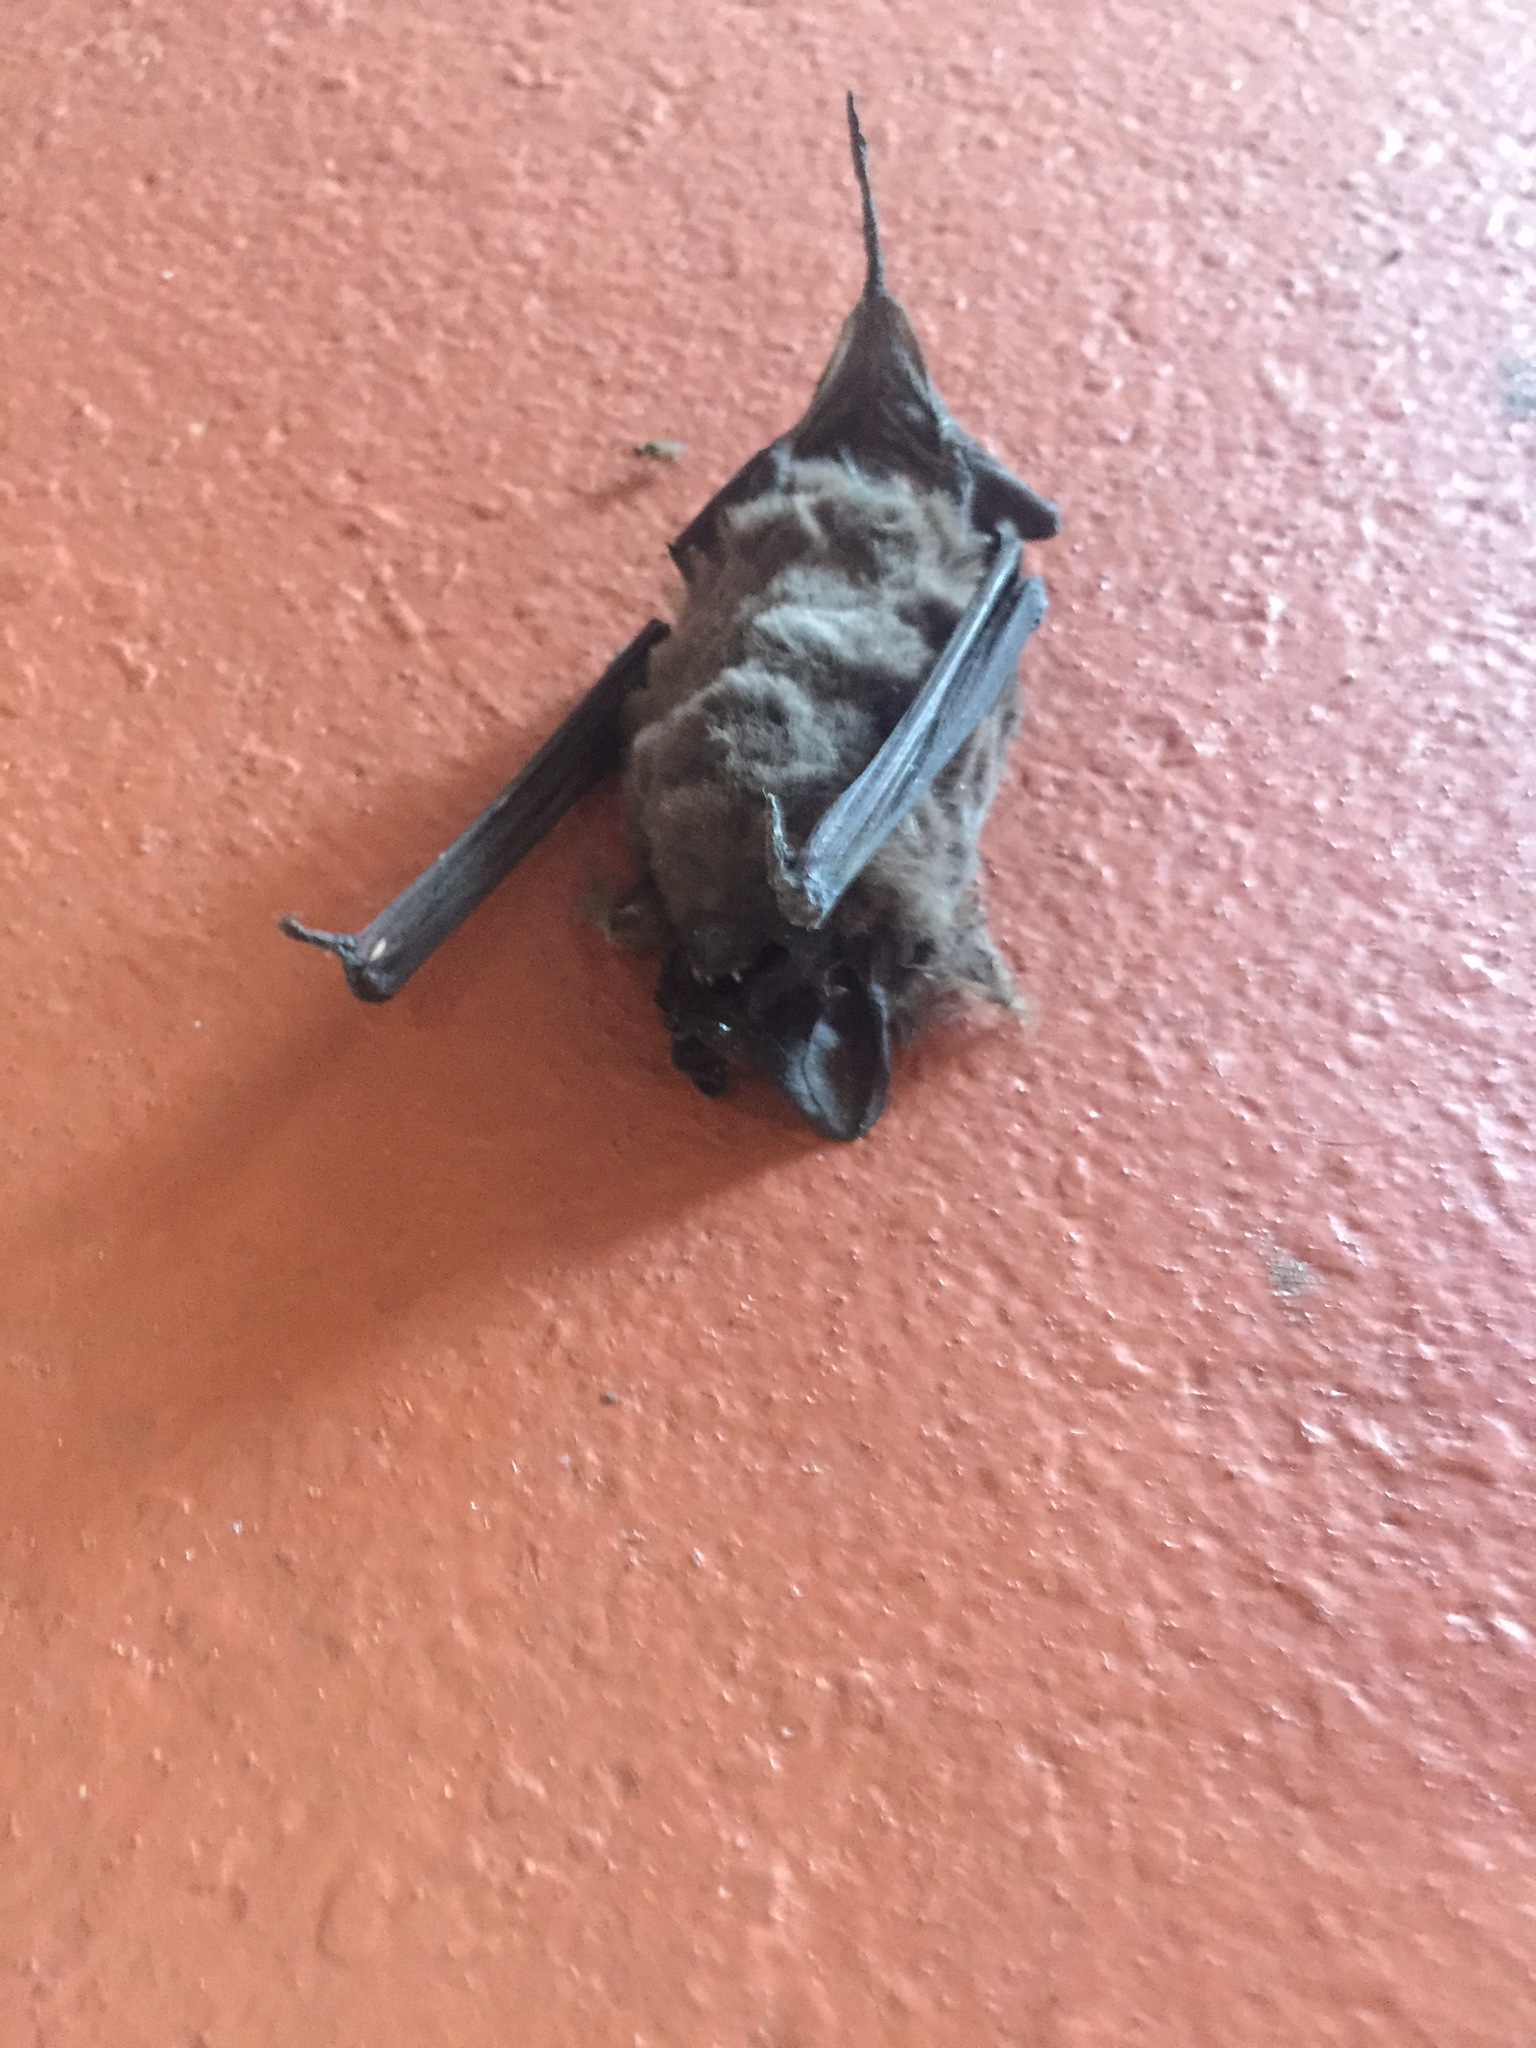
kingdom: Animalia
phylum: Chordata
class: Mammalia
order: Chiroptera
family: Molossidae
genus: Tadarida
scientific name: Tadarida brasiliensis
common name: Mexican free-tailed bat
